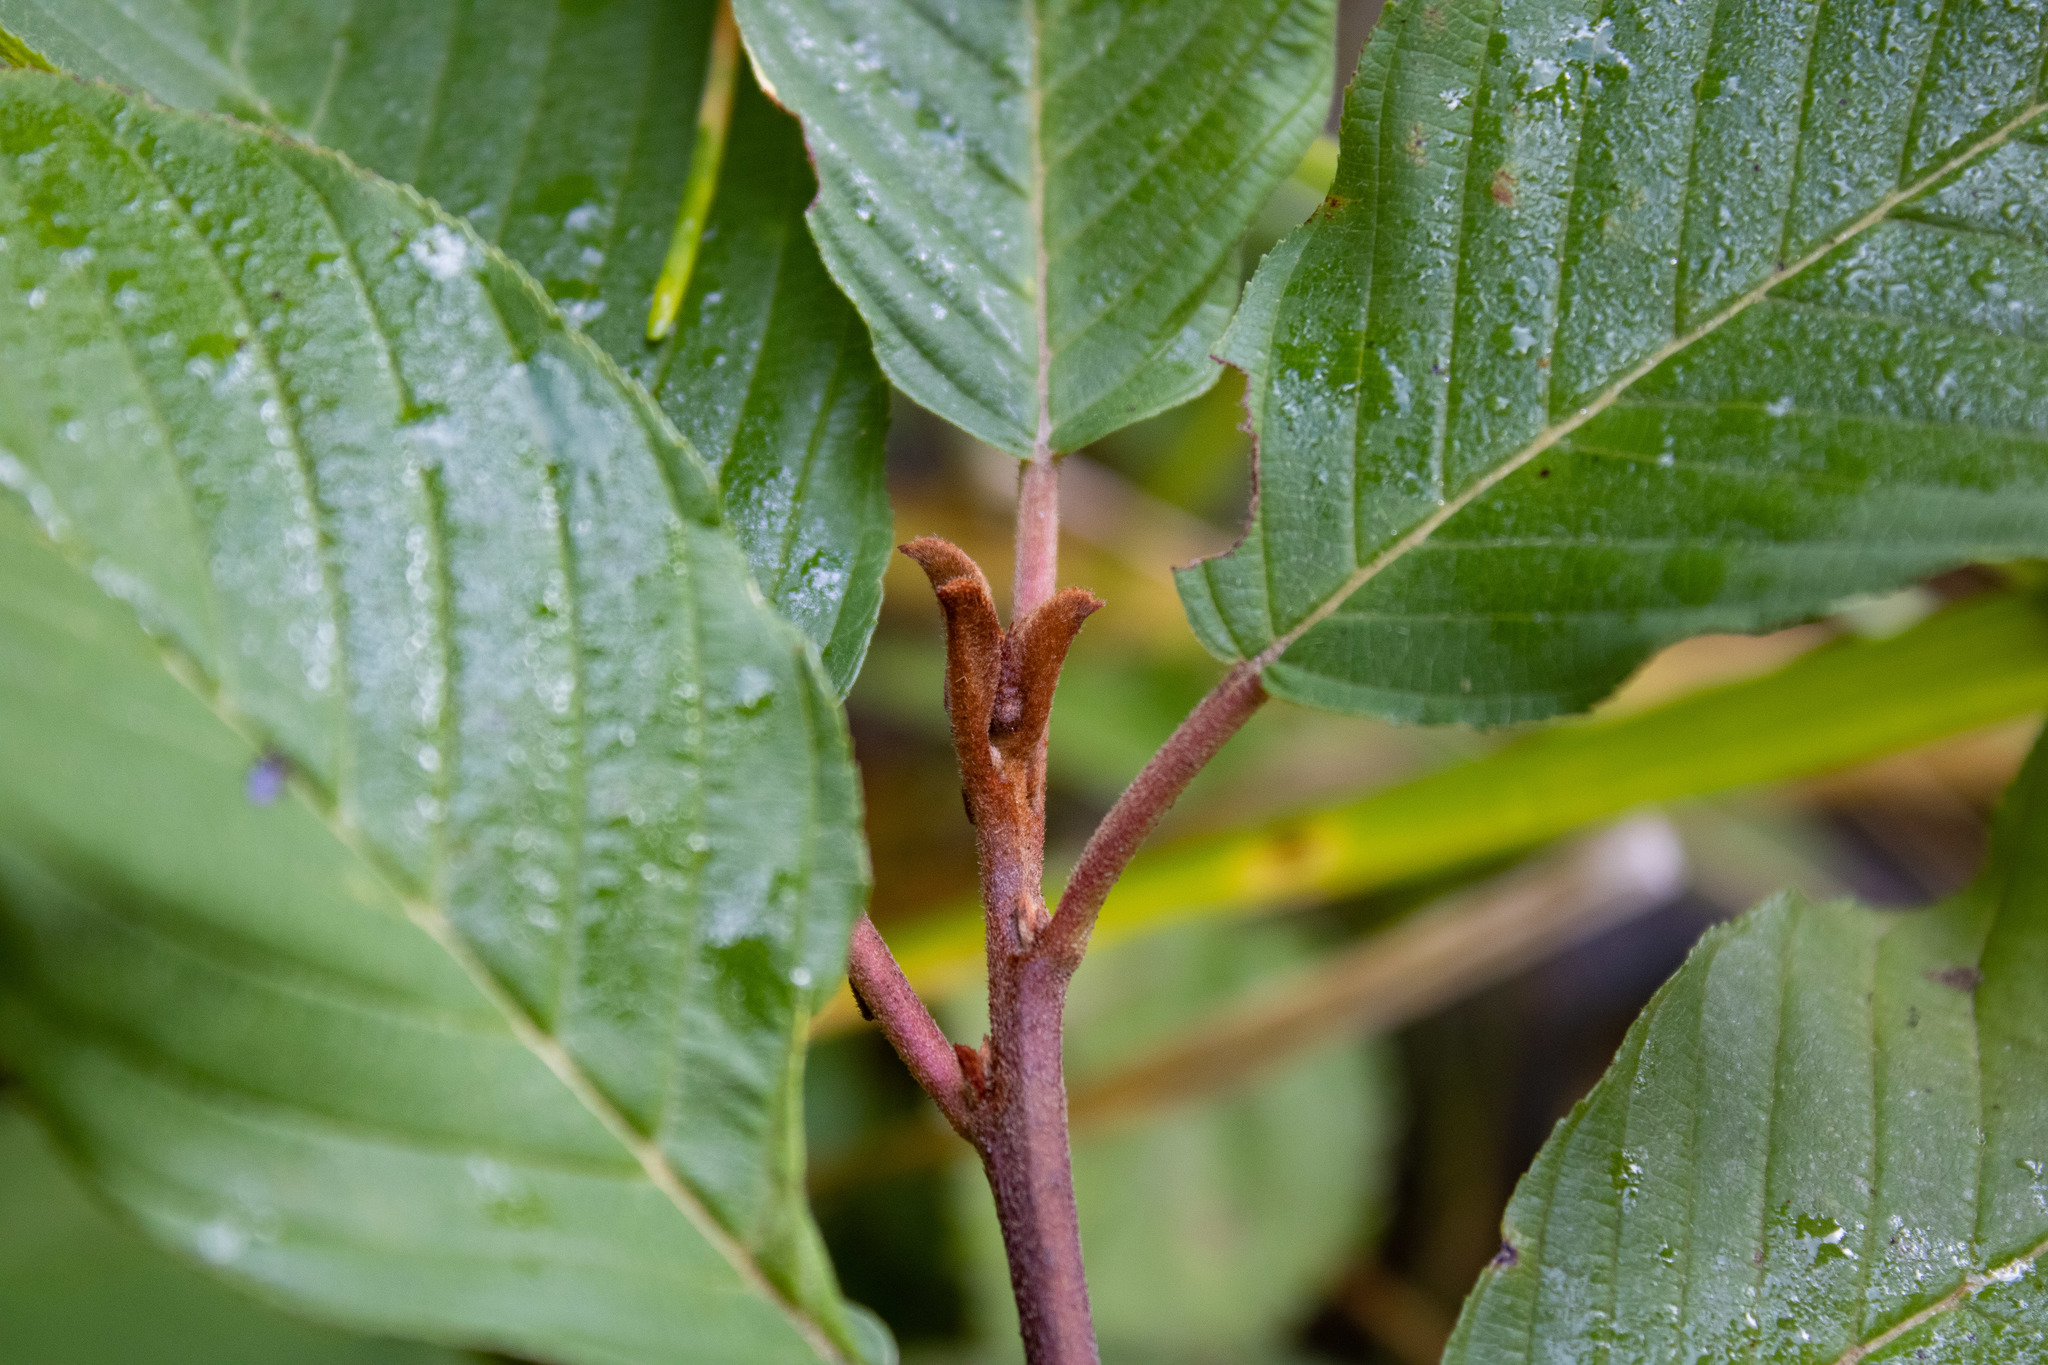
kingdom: Plantae
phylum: Tracheophyta
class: Magnoliopsida
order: Rosales
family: Rhamnaceae
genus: Frangula
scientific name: Frangula purshiana
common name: Cascara buckthorn
